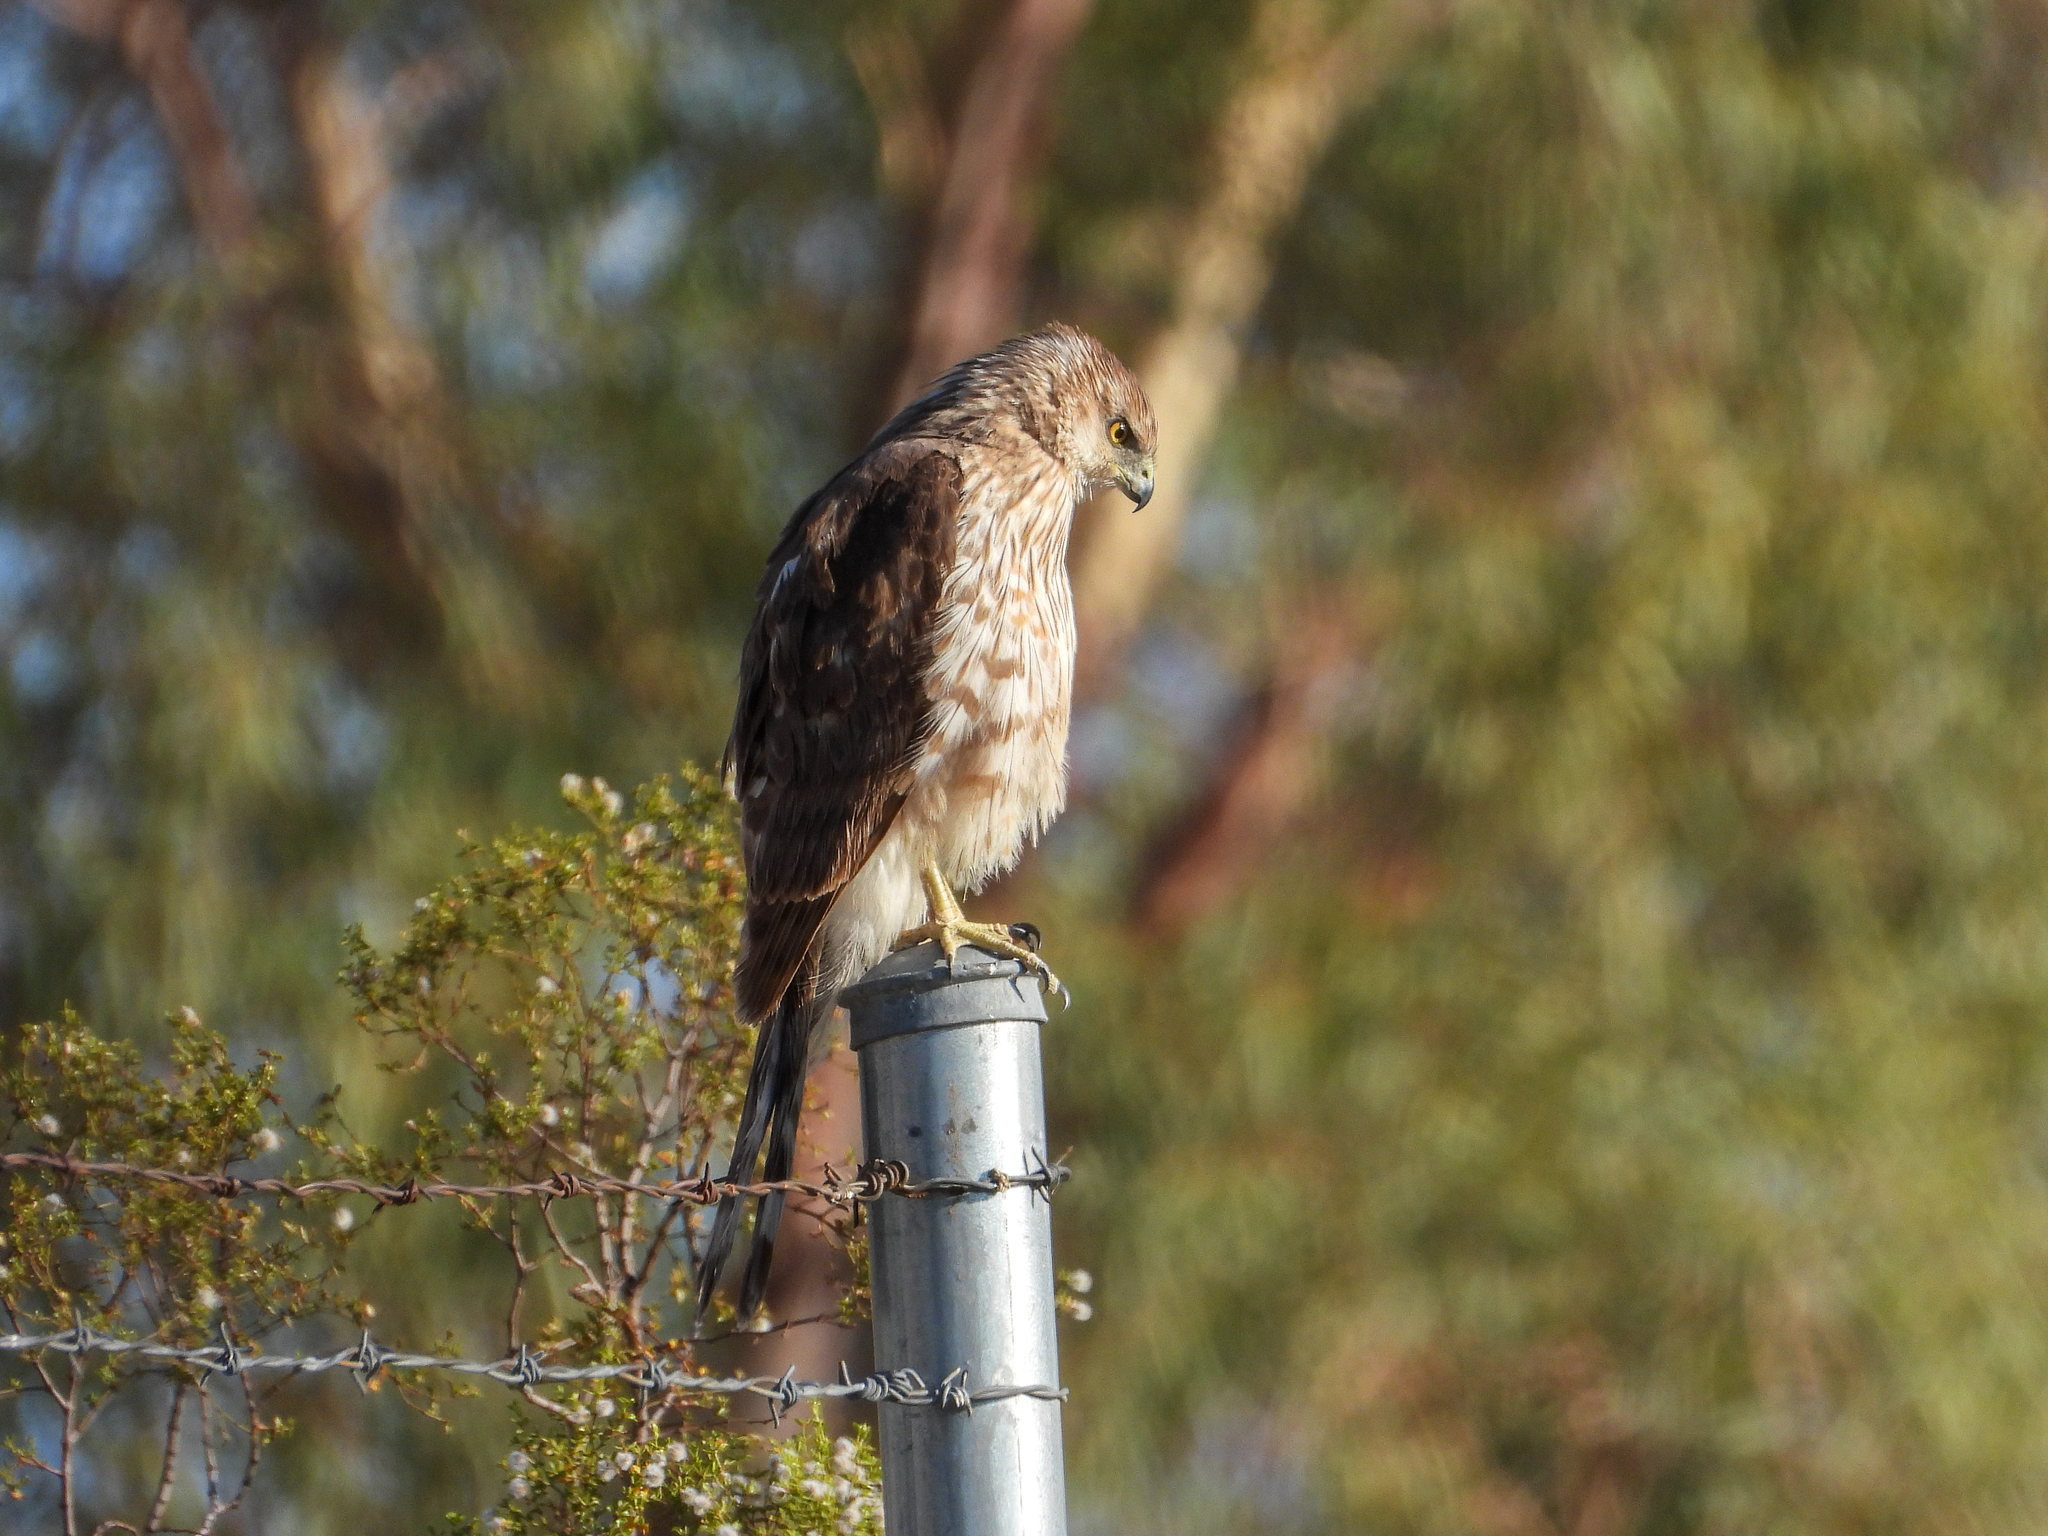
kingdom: Animalia
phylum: Chordata
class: Aves
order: Accipitriformes
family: Accipitridae
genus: Accipiter
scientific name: Accipiter cooperii
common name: Cooper's hawk
